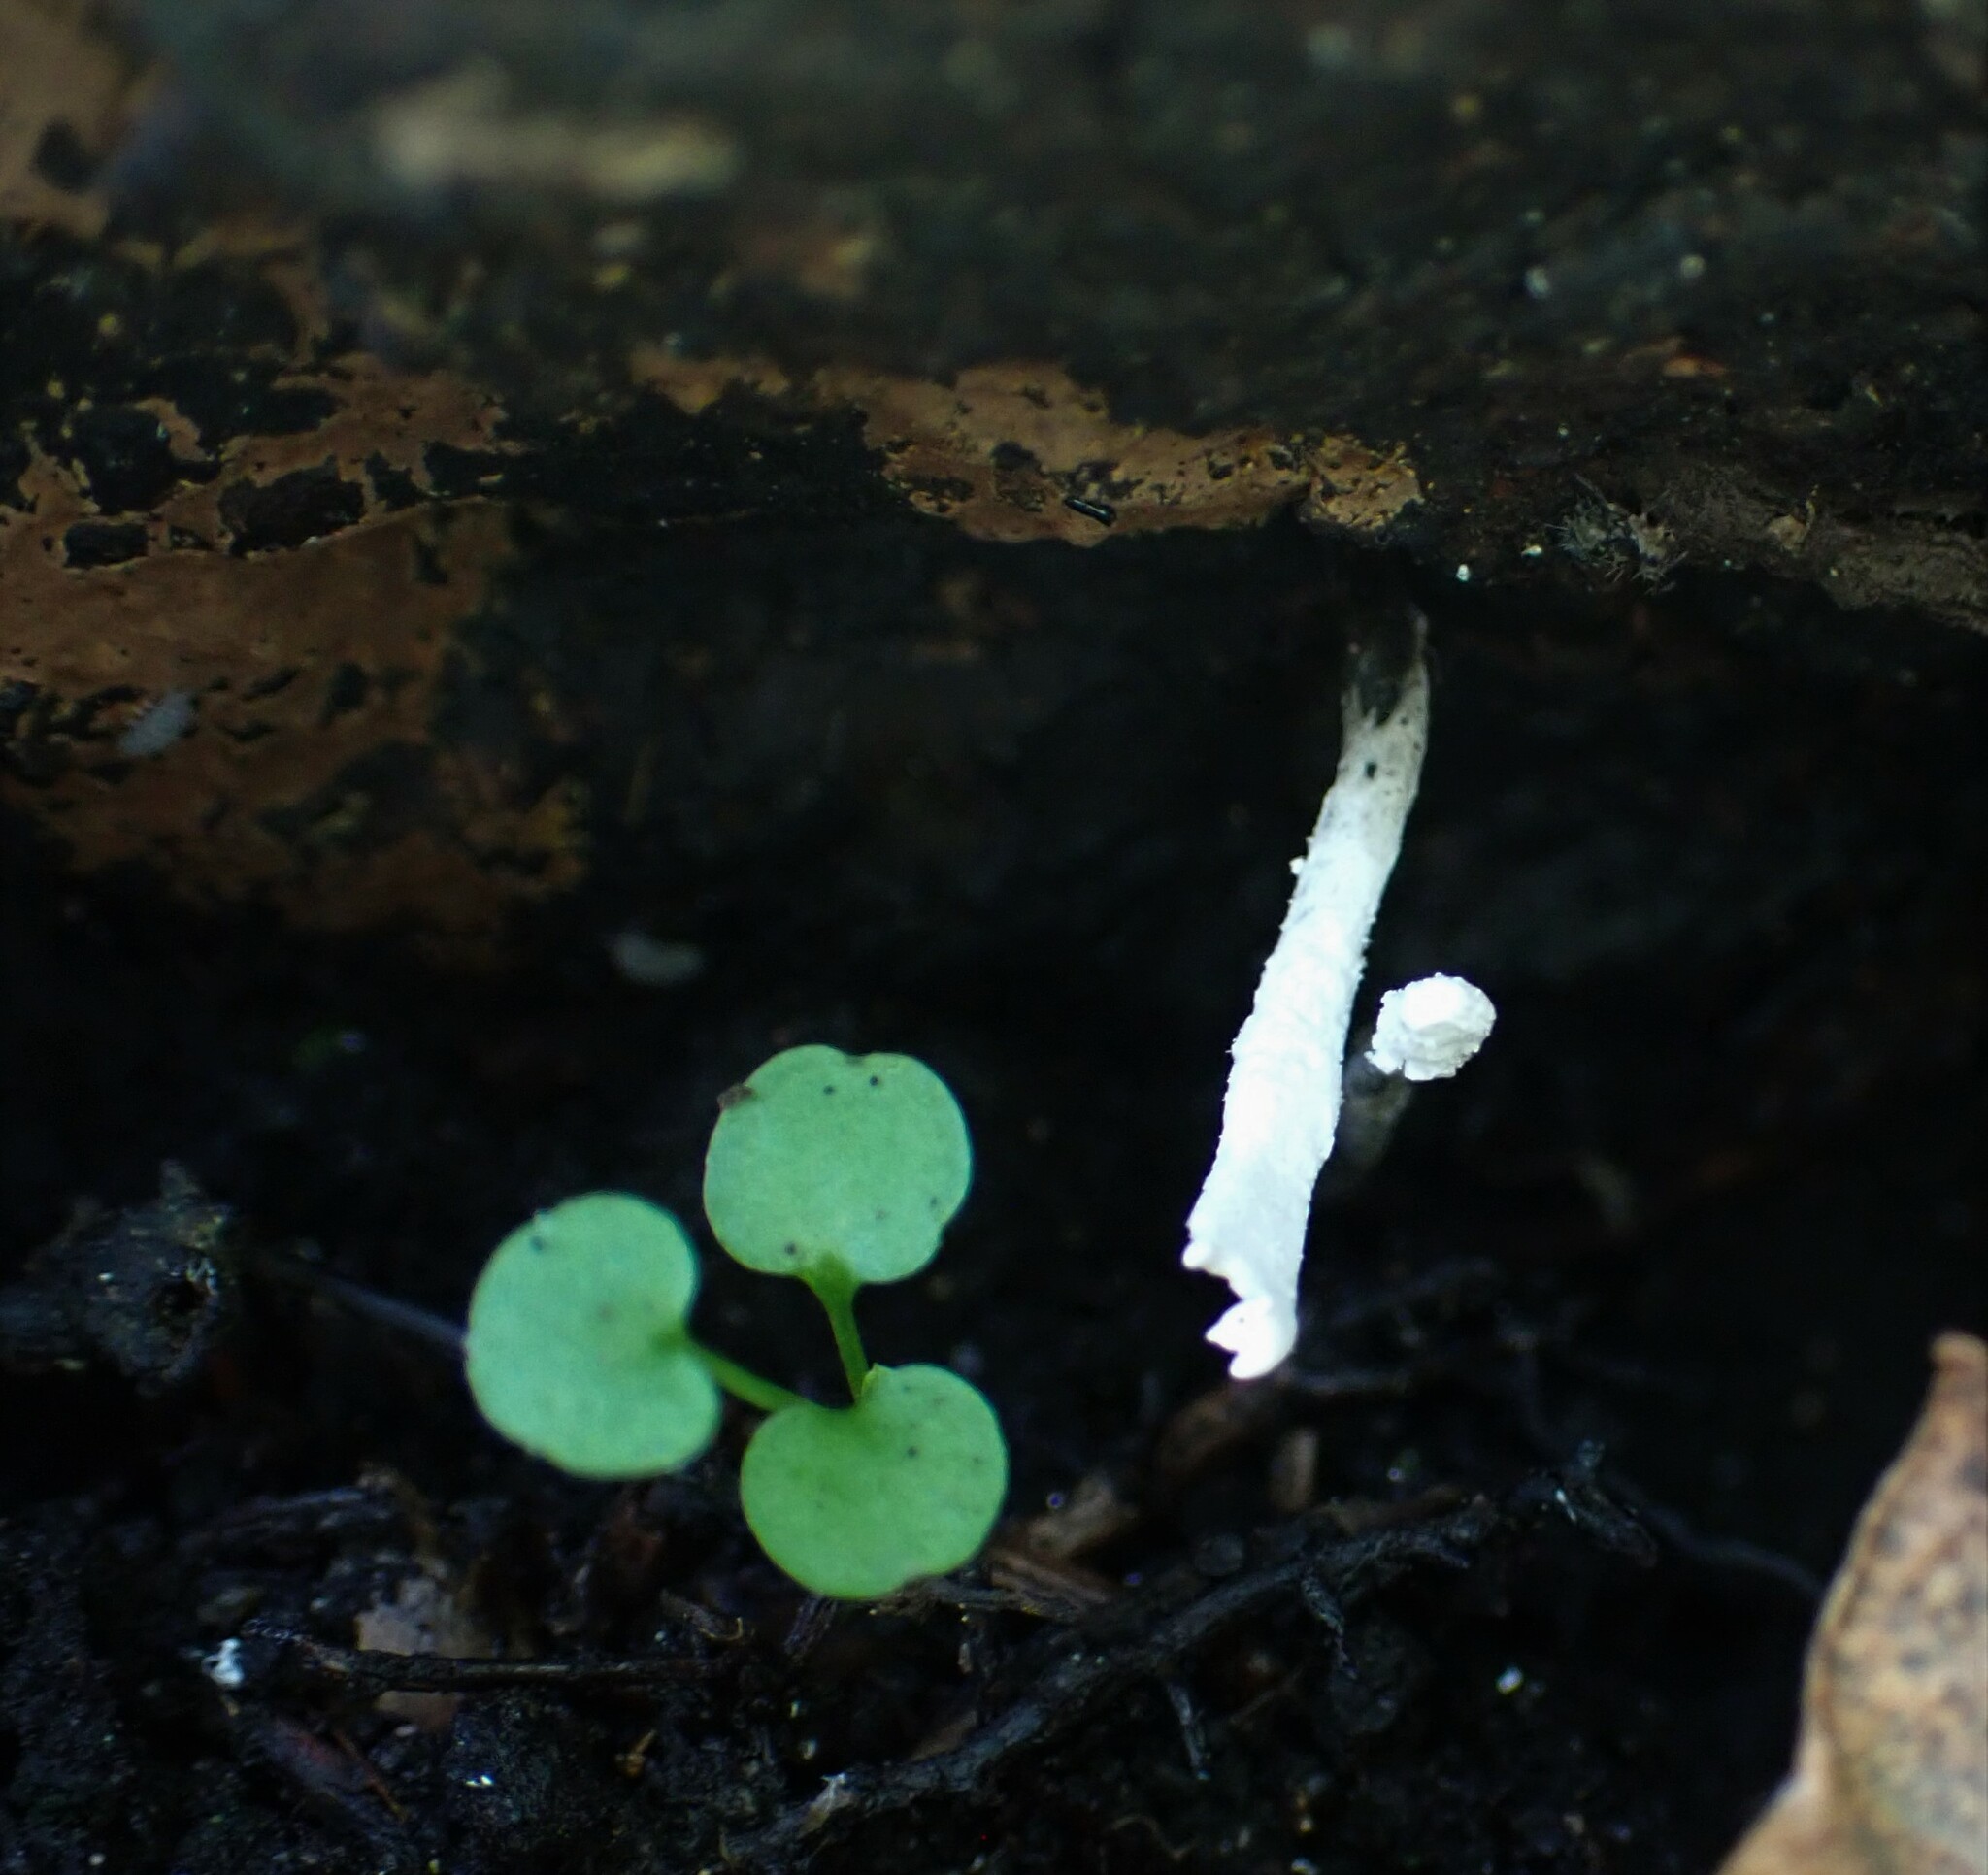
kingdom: Fungi
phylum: Ascomycota
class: Sordariomycetes
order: Xylariales
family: Xylariaceae
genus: Xylaria
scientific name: Xylaria hypoxylon
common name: Candle-snuff fungus
